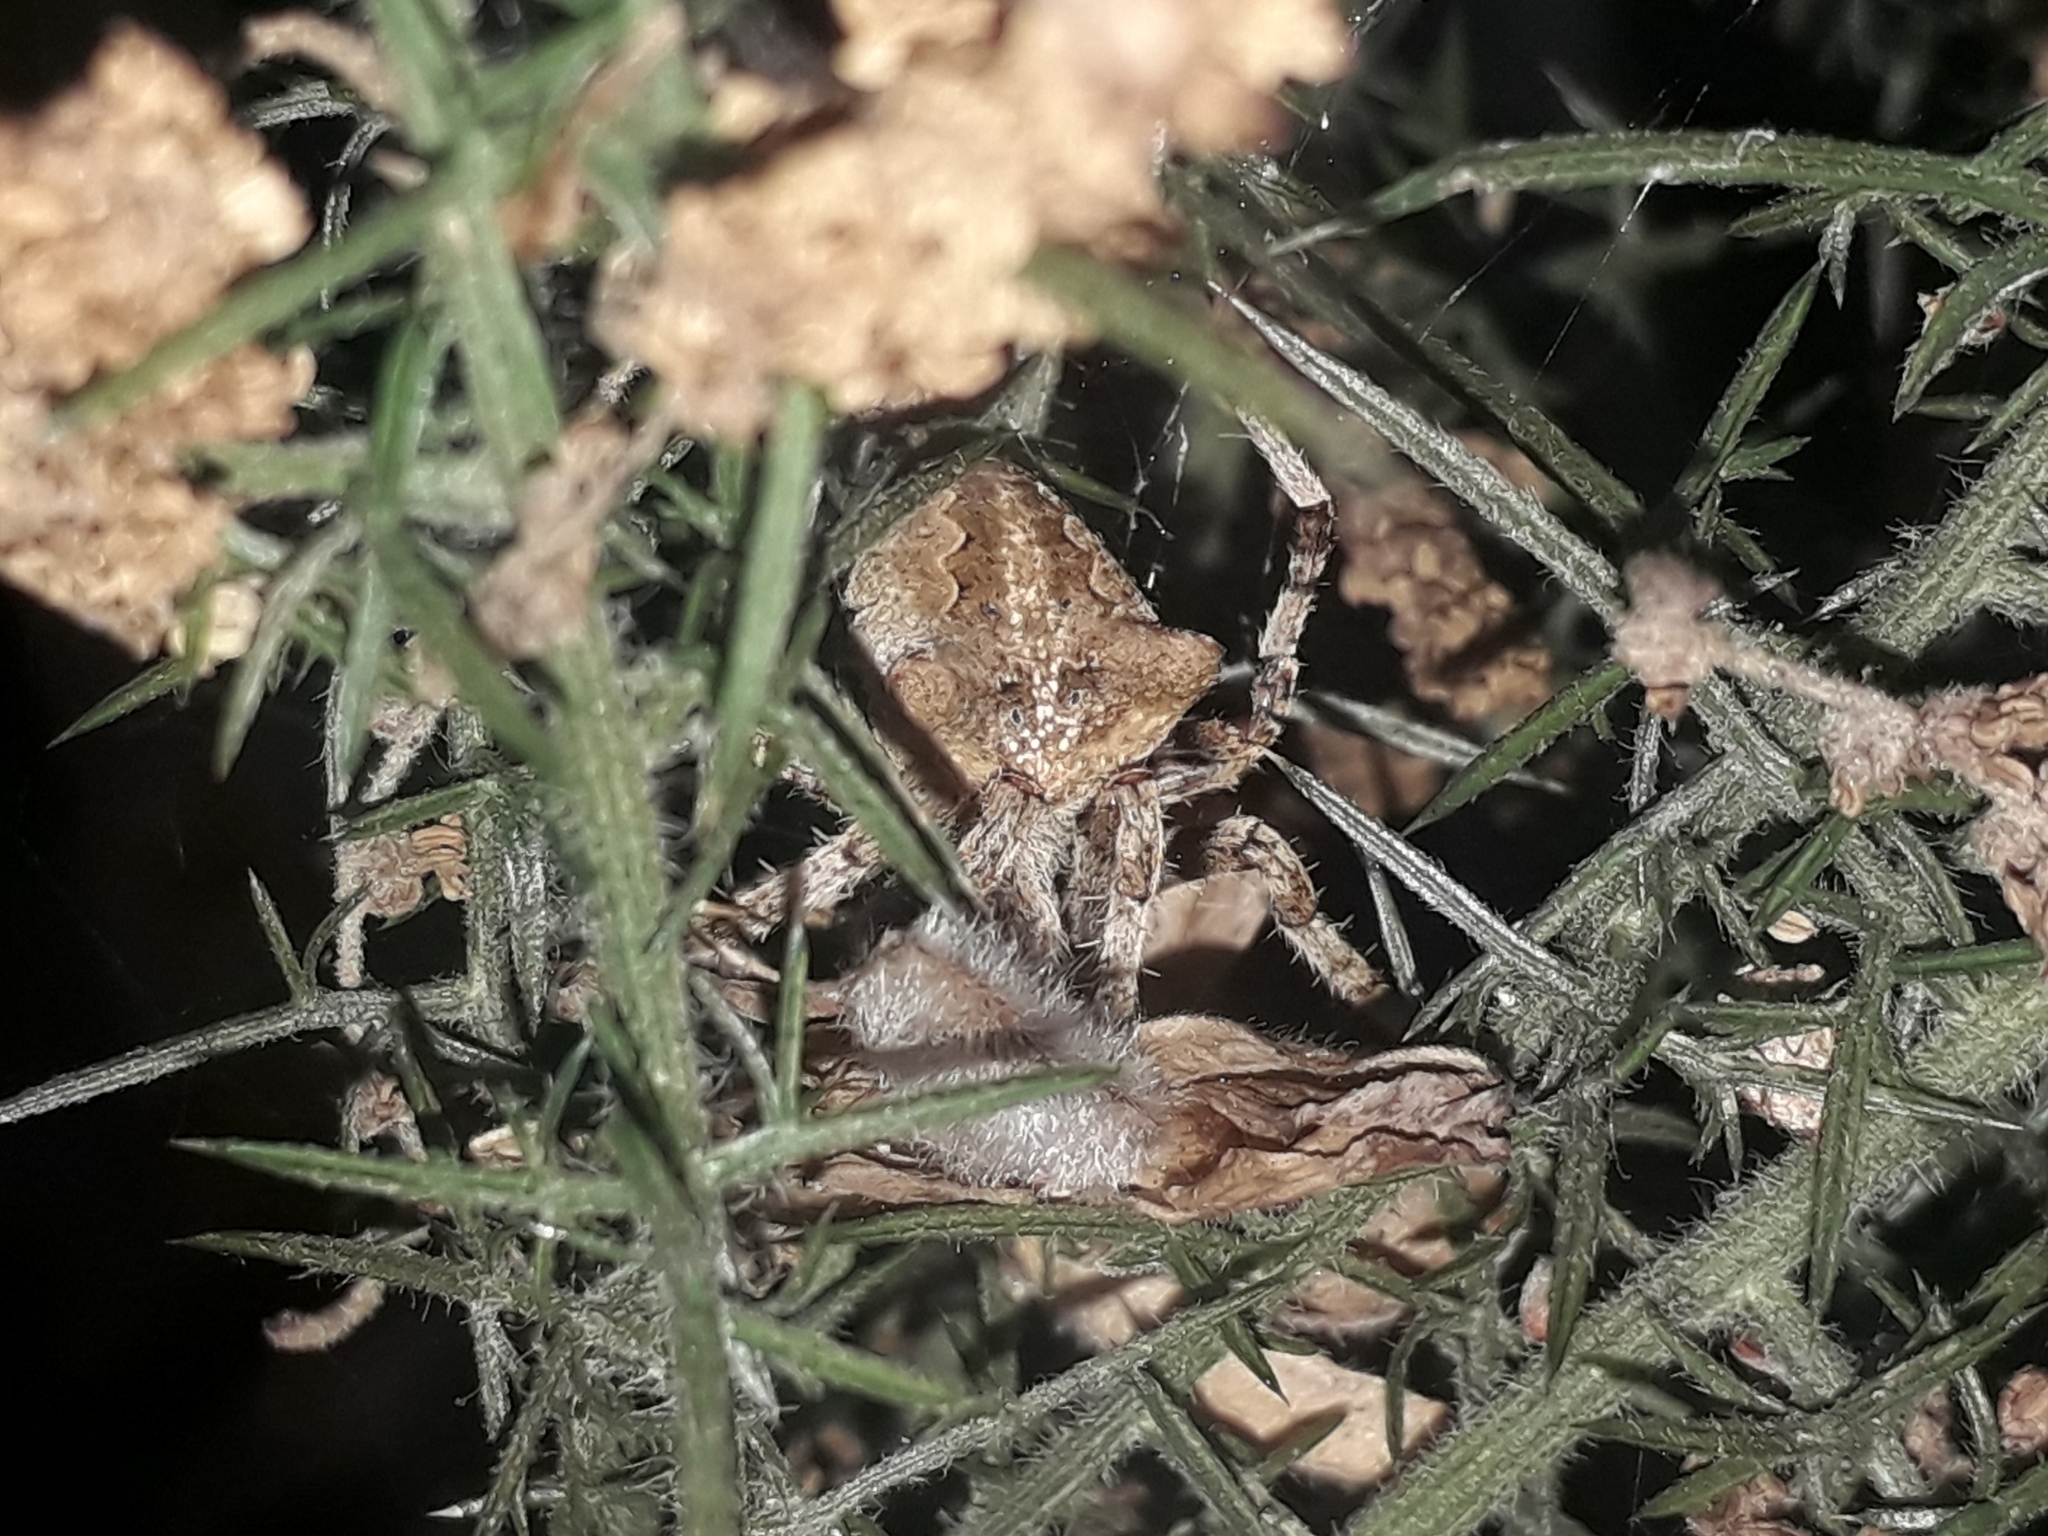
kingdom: Animalia
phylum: Arthropoda
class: Arachnida
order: Araneae
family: Araneidae
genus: Araneus
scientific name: Araneus angulatus
